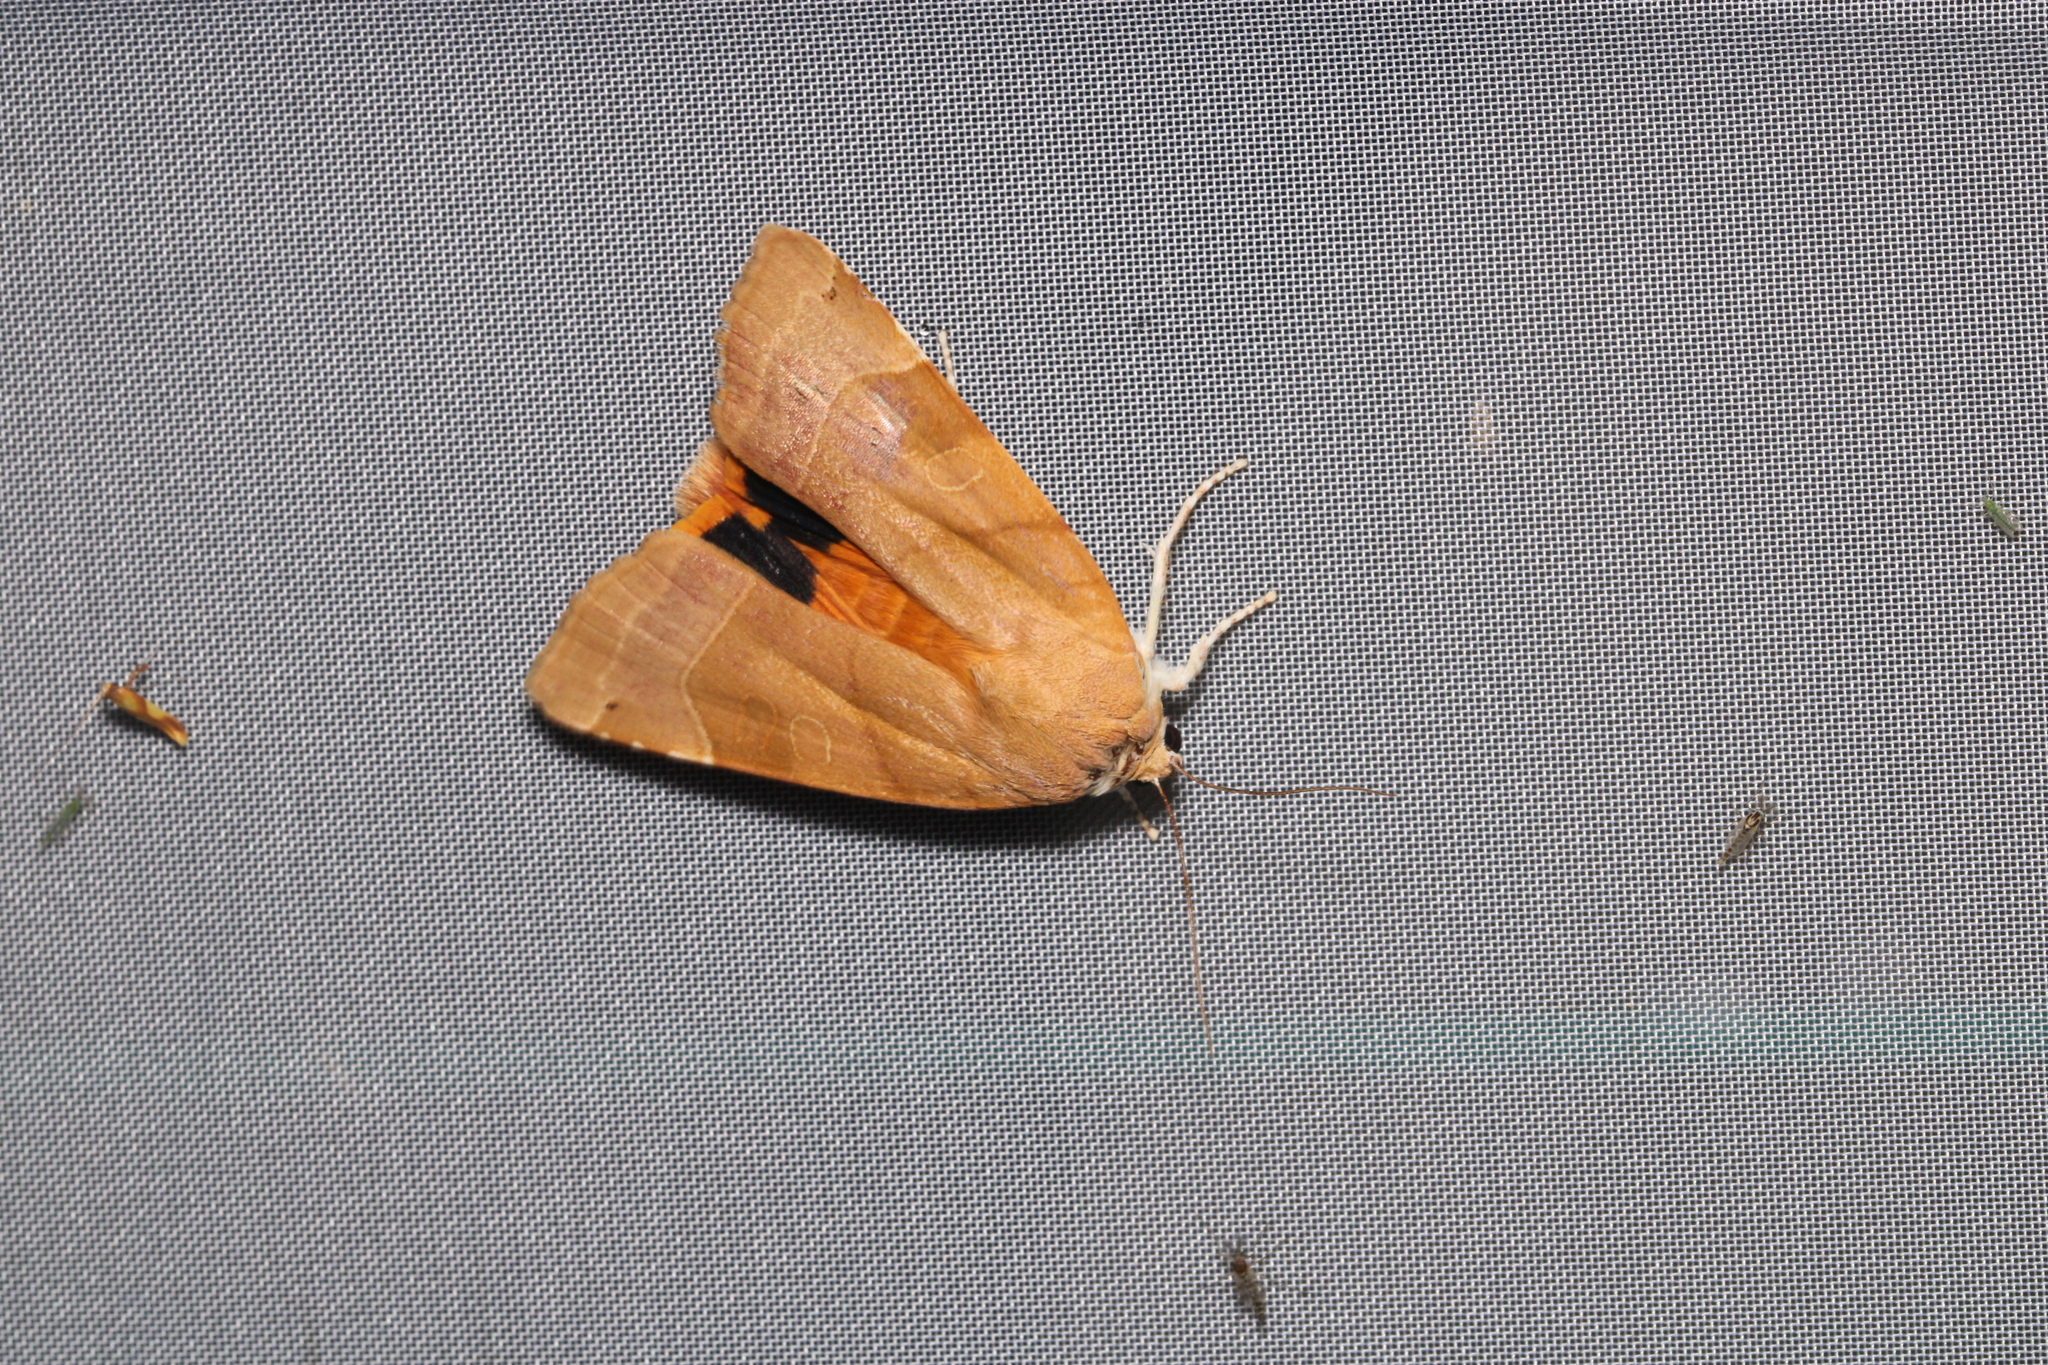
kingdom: Animalia
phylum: Arthropoda
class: Insecta
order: Lepidoptera
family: Noctuidae
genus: Noctua
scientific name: Noctua fimbriata
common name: Broad-bordered yellow underwing
